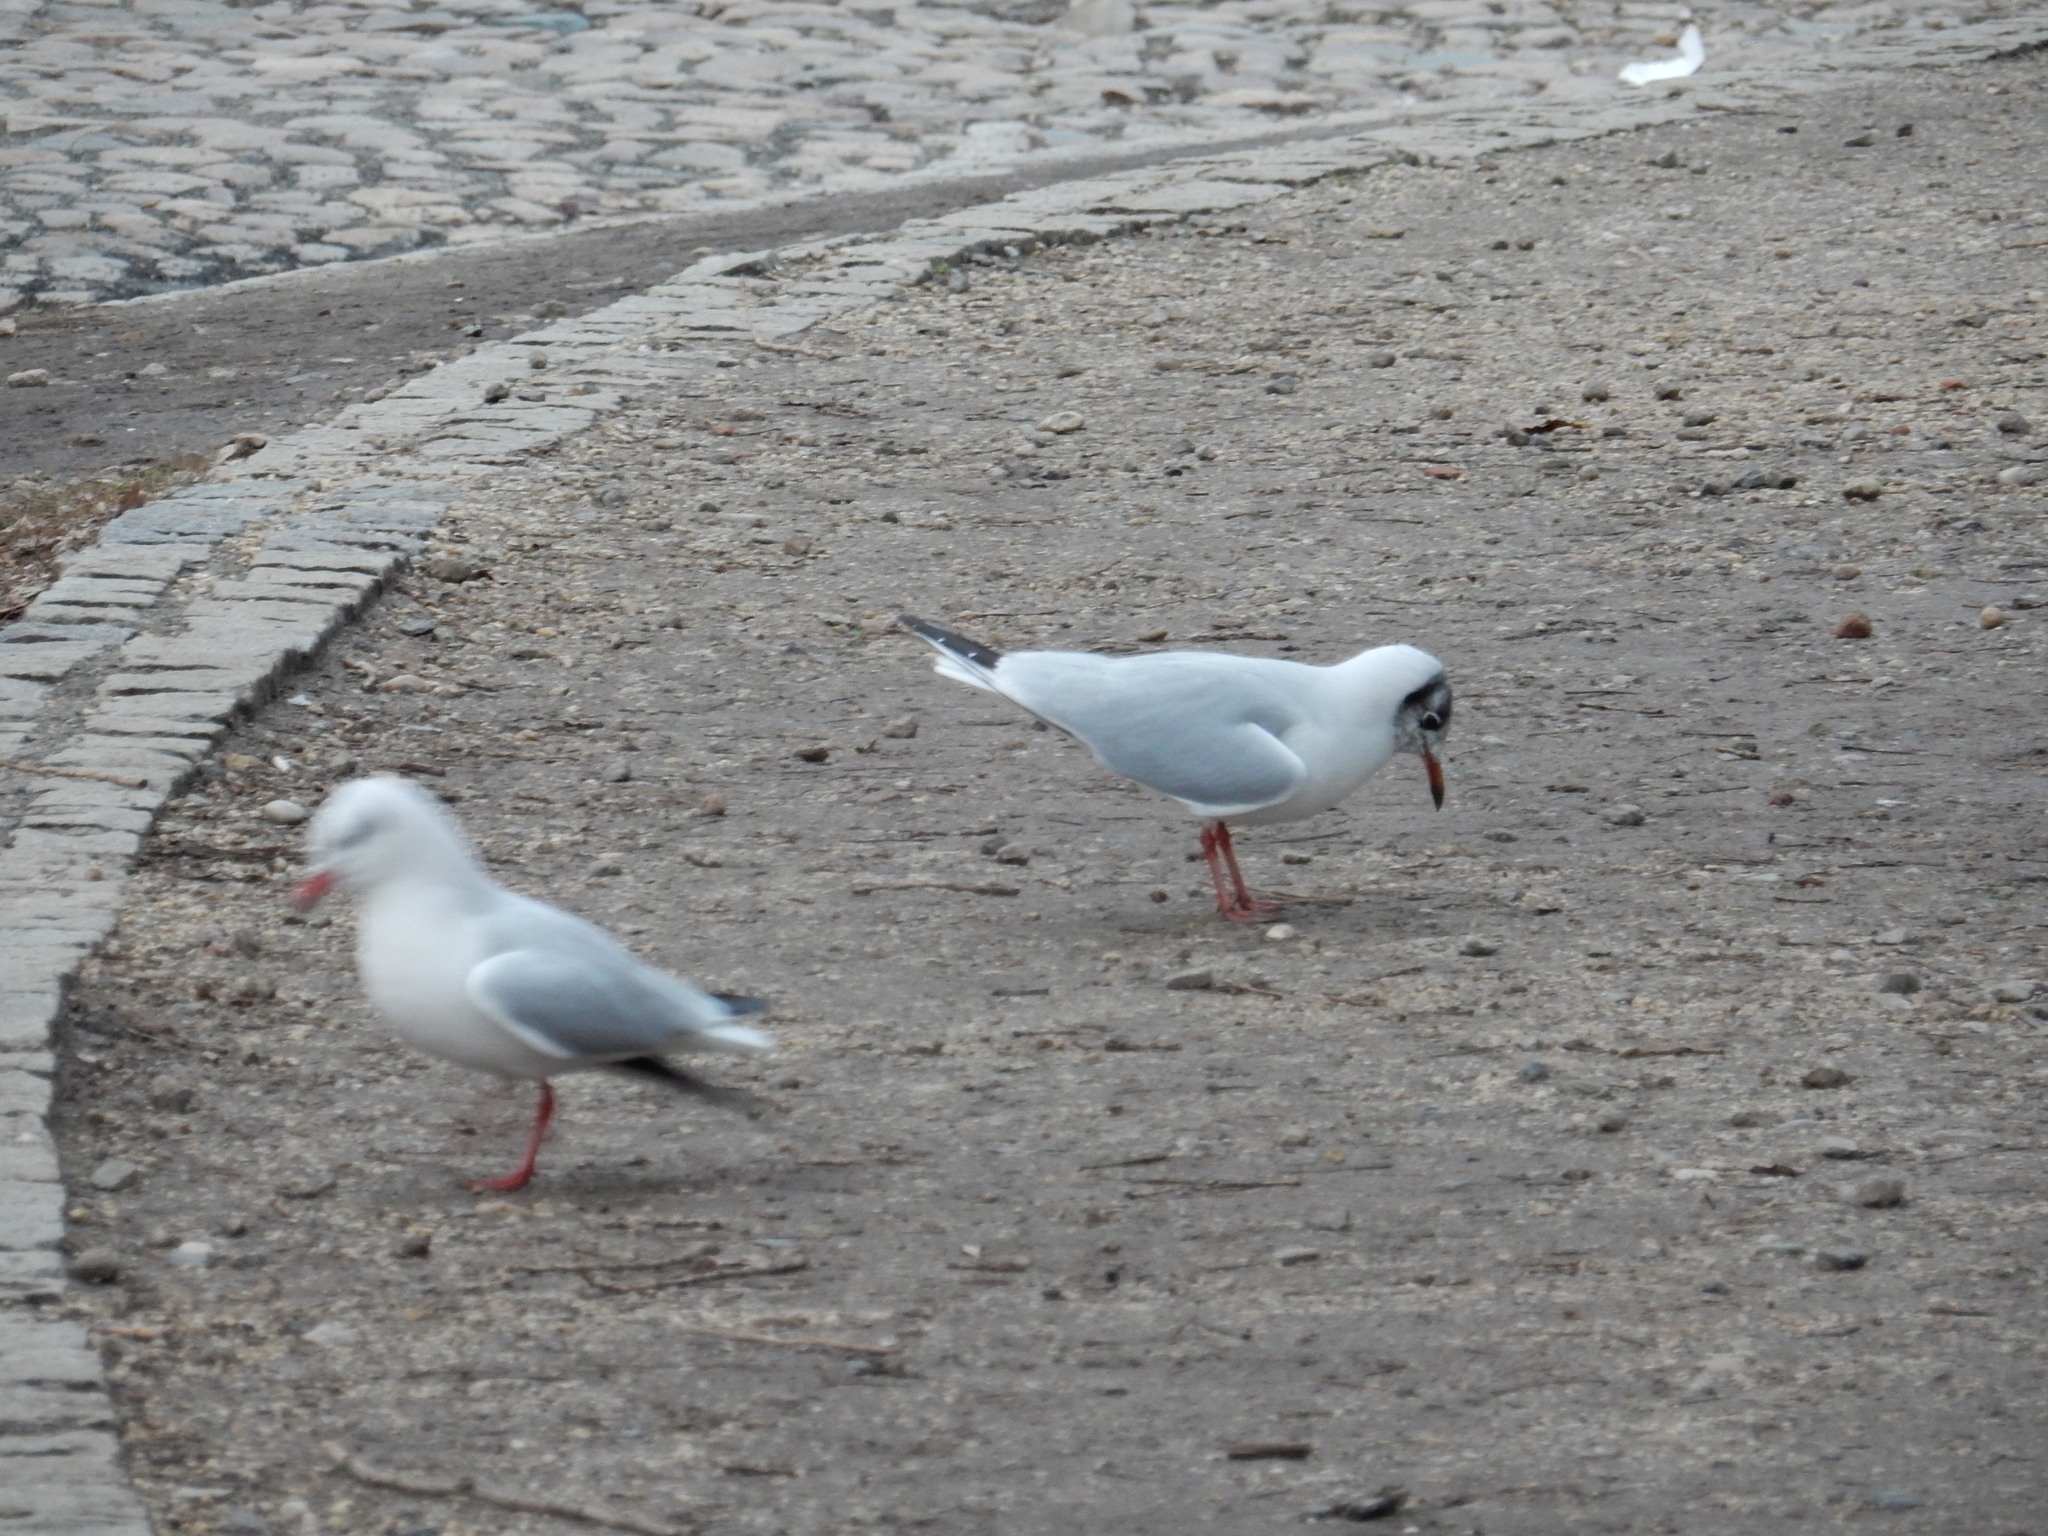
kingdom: Animalia
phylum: Chordata
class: Aves
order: Charadriiformes
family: Laridae
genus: Chroicocephalus
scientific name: Chroicocephalus ridibundus
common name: Black-headed gull
